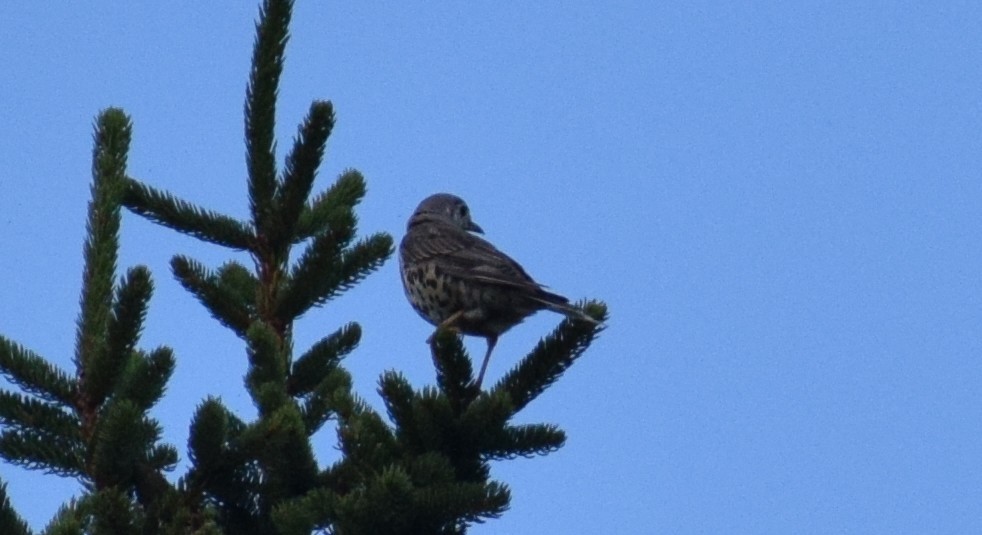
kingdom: Animalia
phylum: Chordata
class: Aves
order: Passeriformes
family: Turdidae
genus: Turdus
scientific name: Turdus viscivorus
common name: Mistle thrush
